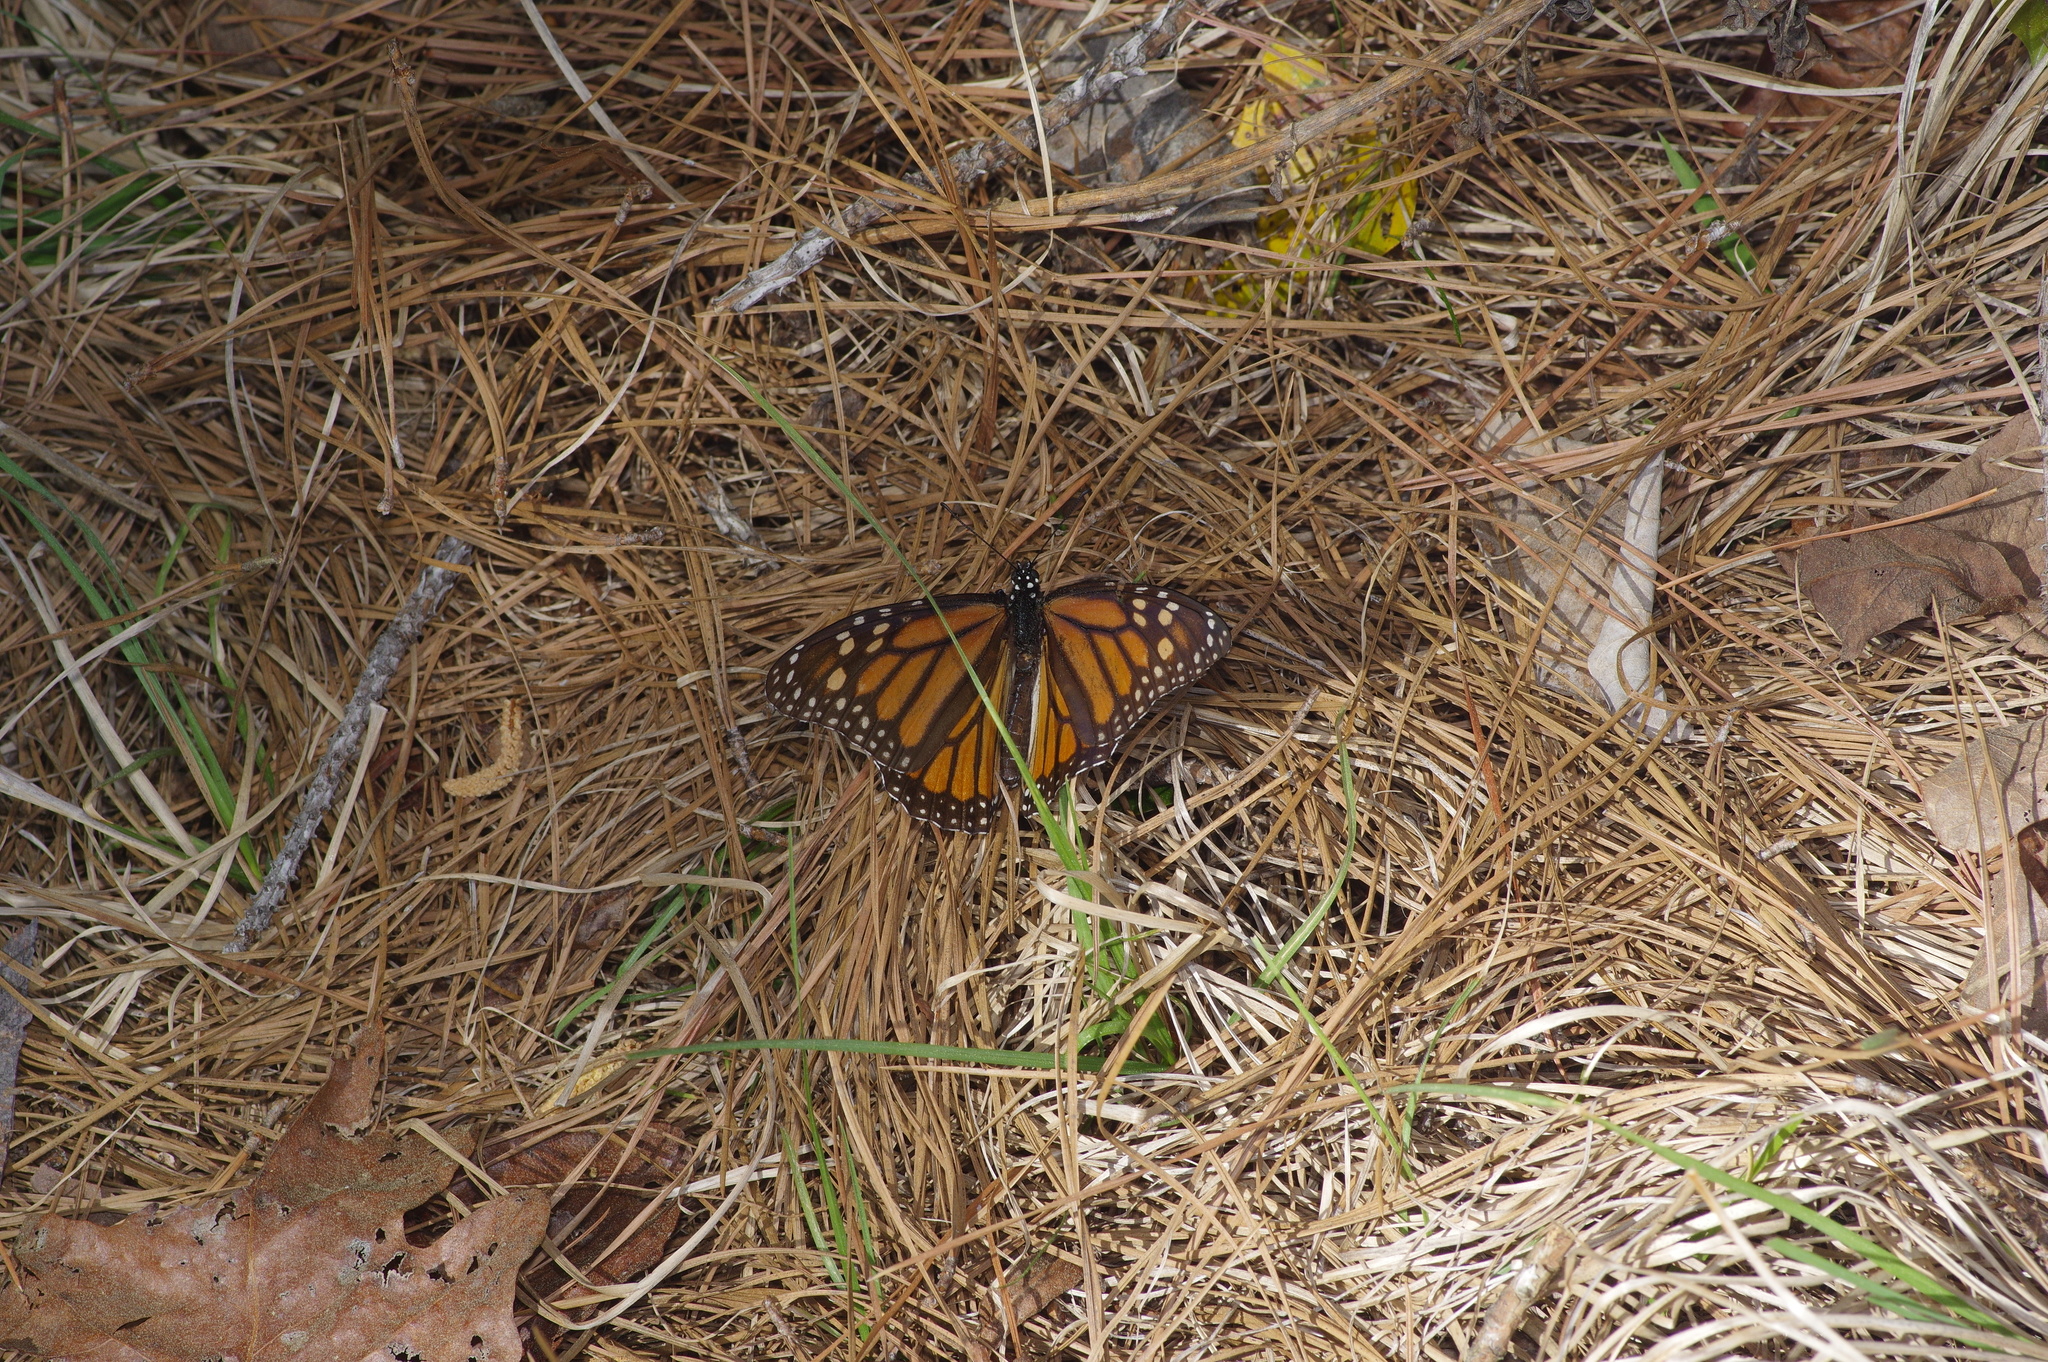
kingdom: Animalia
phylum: Arthropoda
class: Insecta
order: Lepidoptera
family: Nymphalidae
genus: Danaus
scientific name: Danaus plexippus
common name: Monarch
